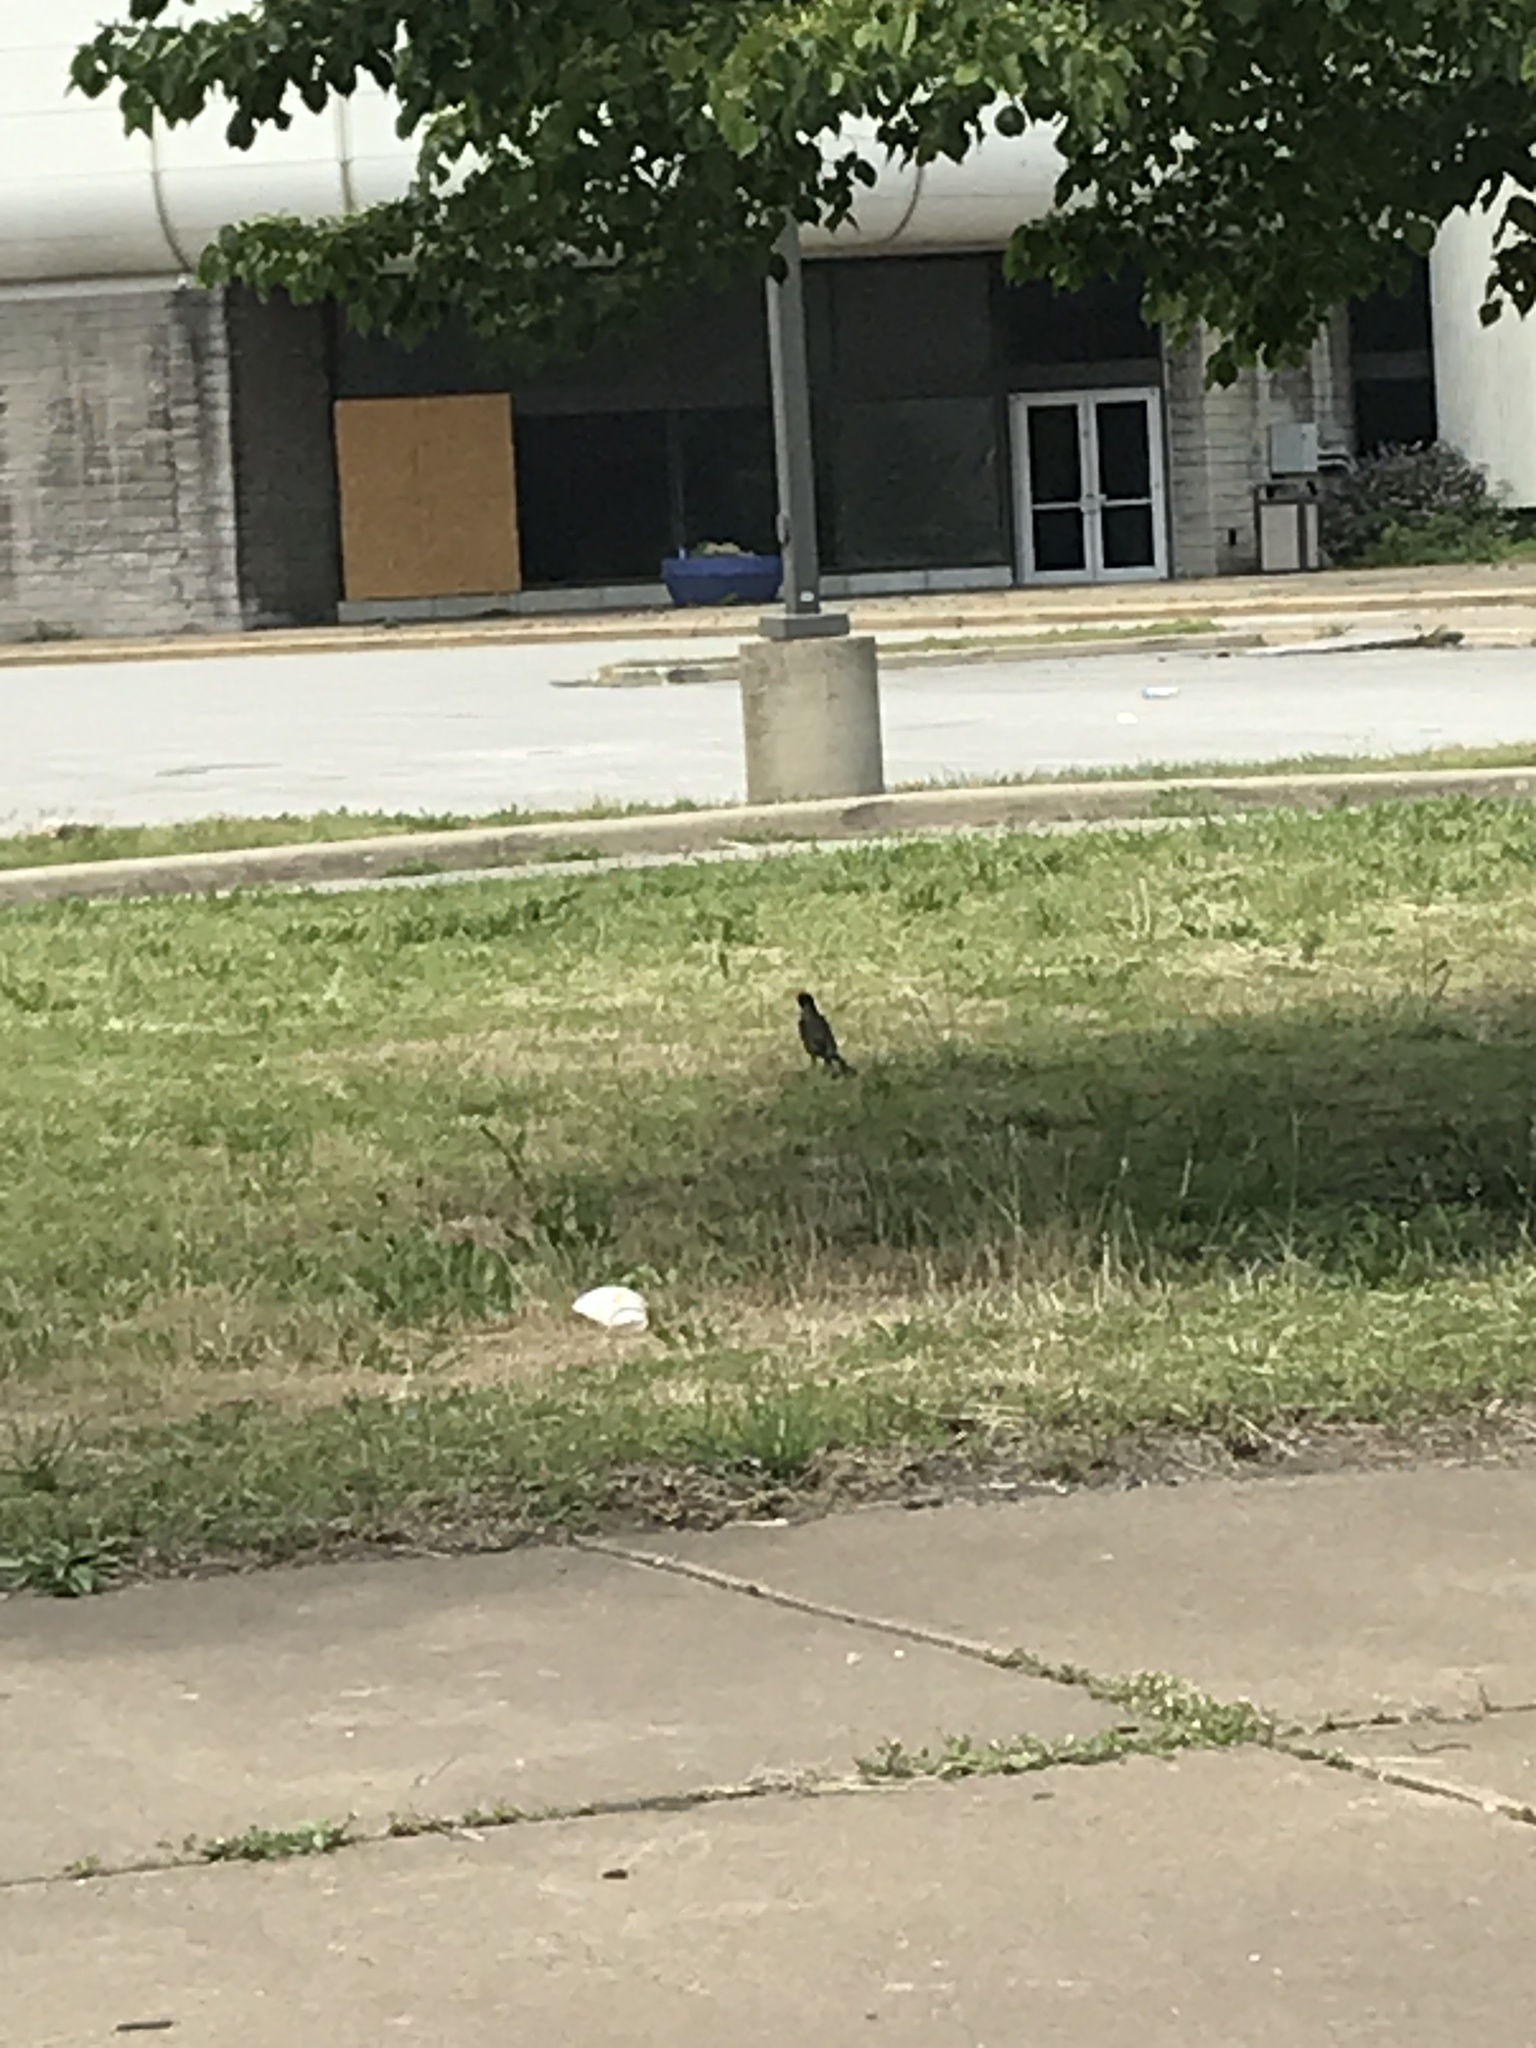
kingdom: Animalia
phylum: Chordata
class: Aves
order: Passeriformes
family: Turdidae
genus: Turdus
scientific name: Turdus migratorius
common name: American robin
